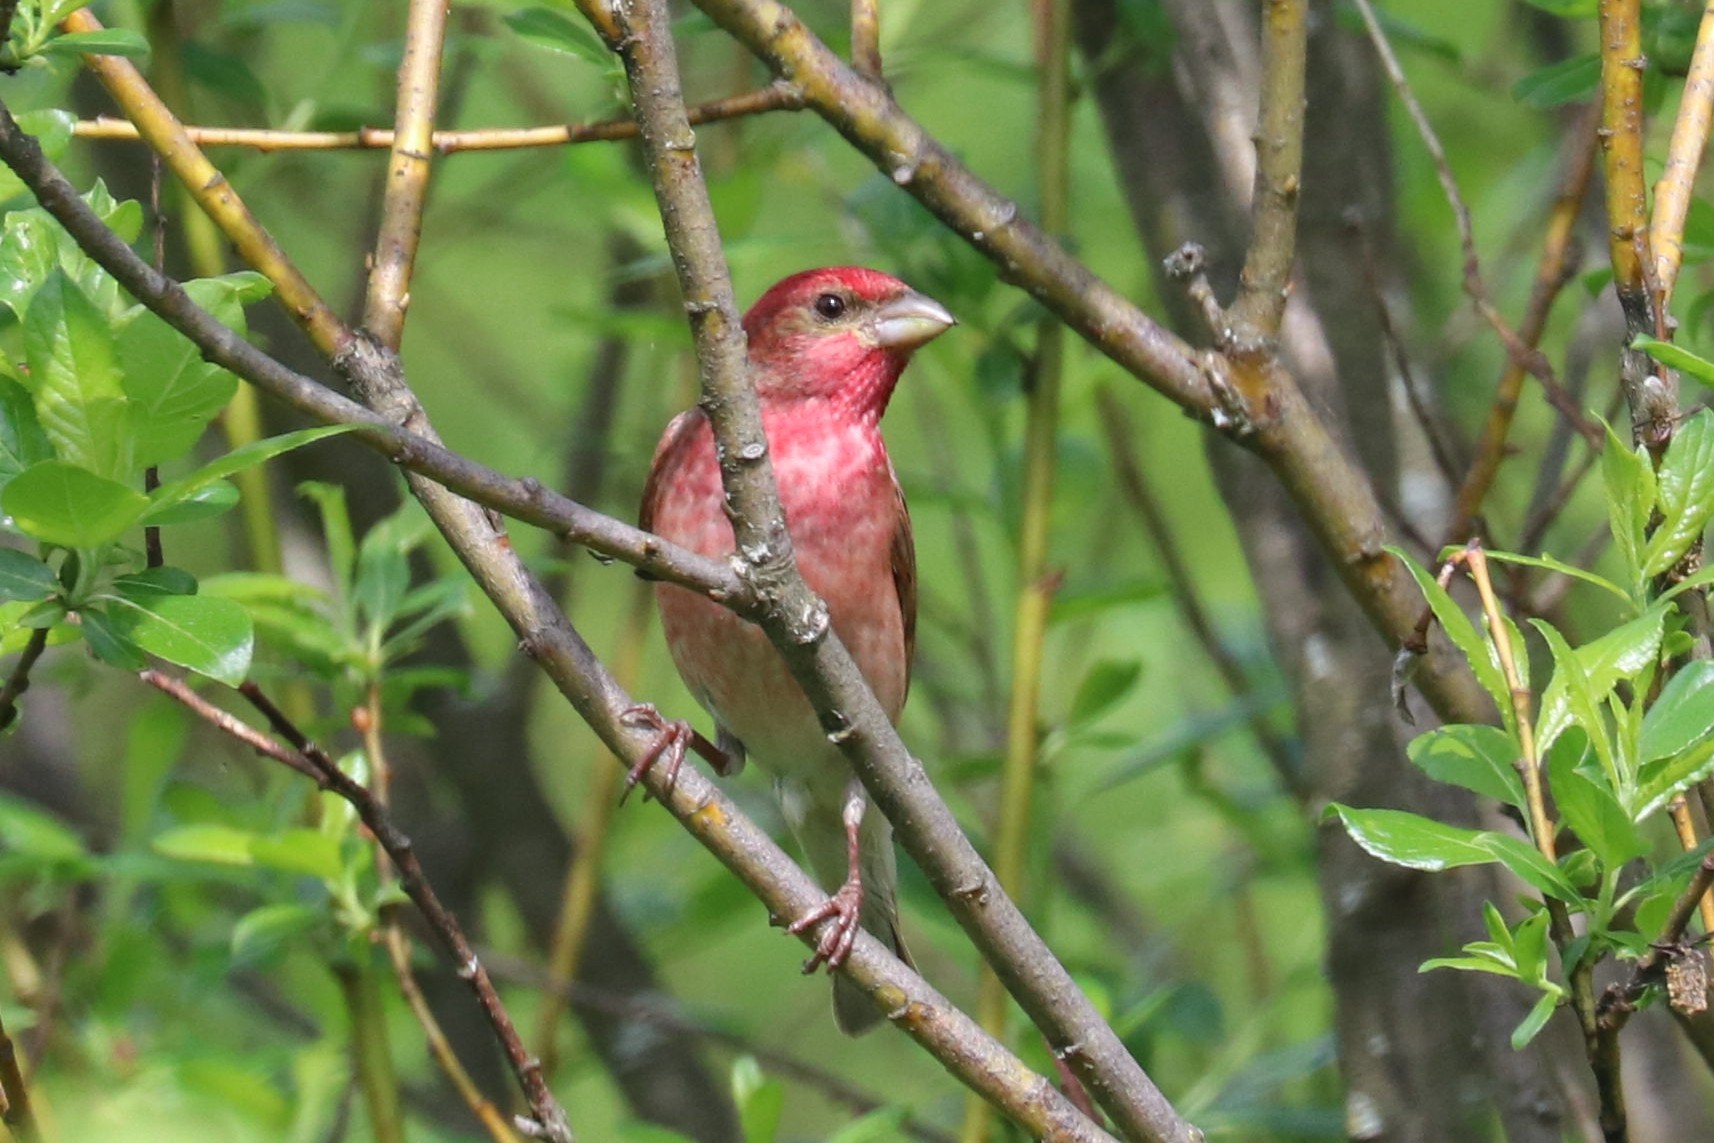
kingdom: Animalia
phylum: Chordata
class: Aves
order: Passeriformes
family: Fringillidae
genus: Carpodacus
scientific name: Carpodacus erythrinus
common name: Common rosefinch
